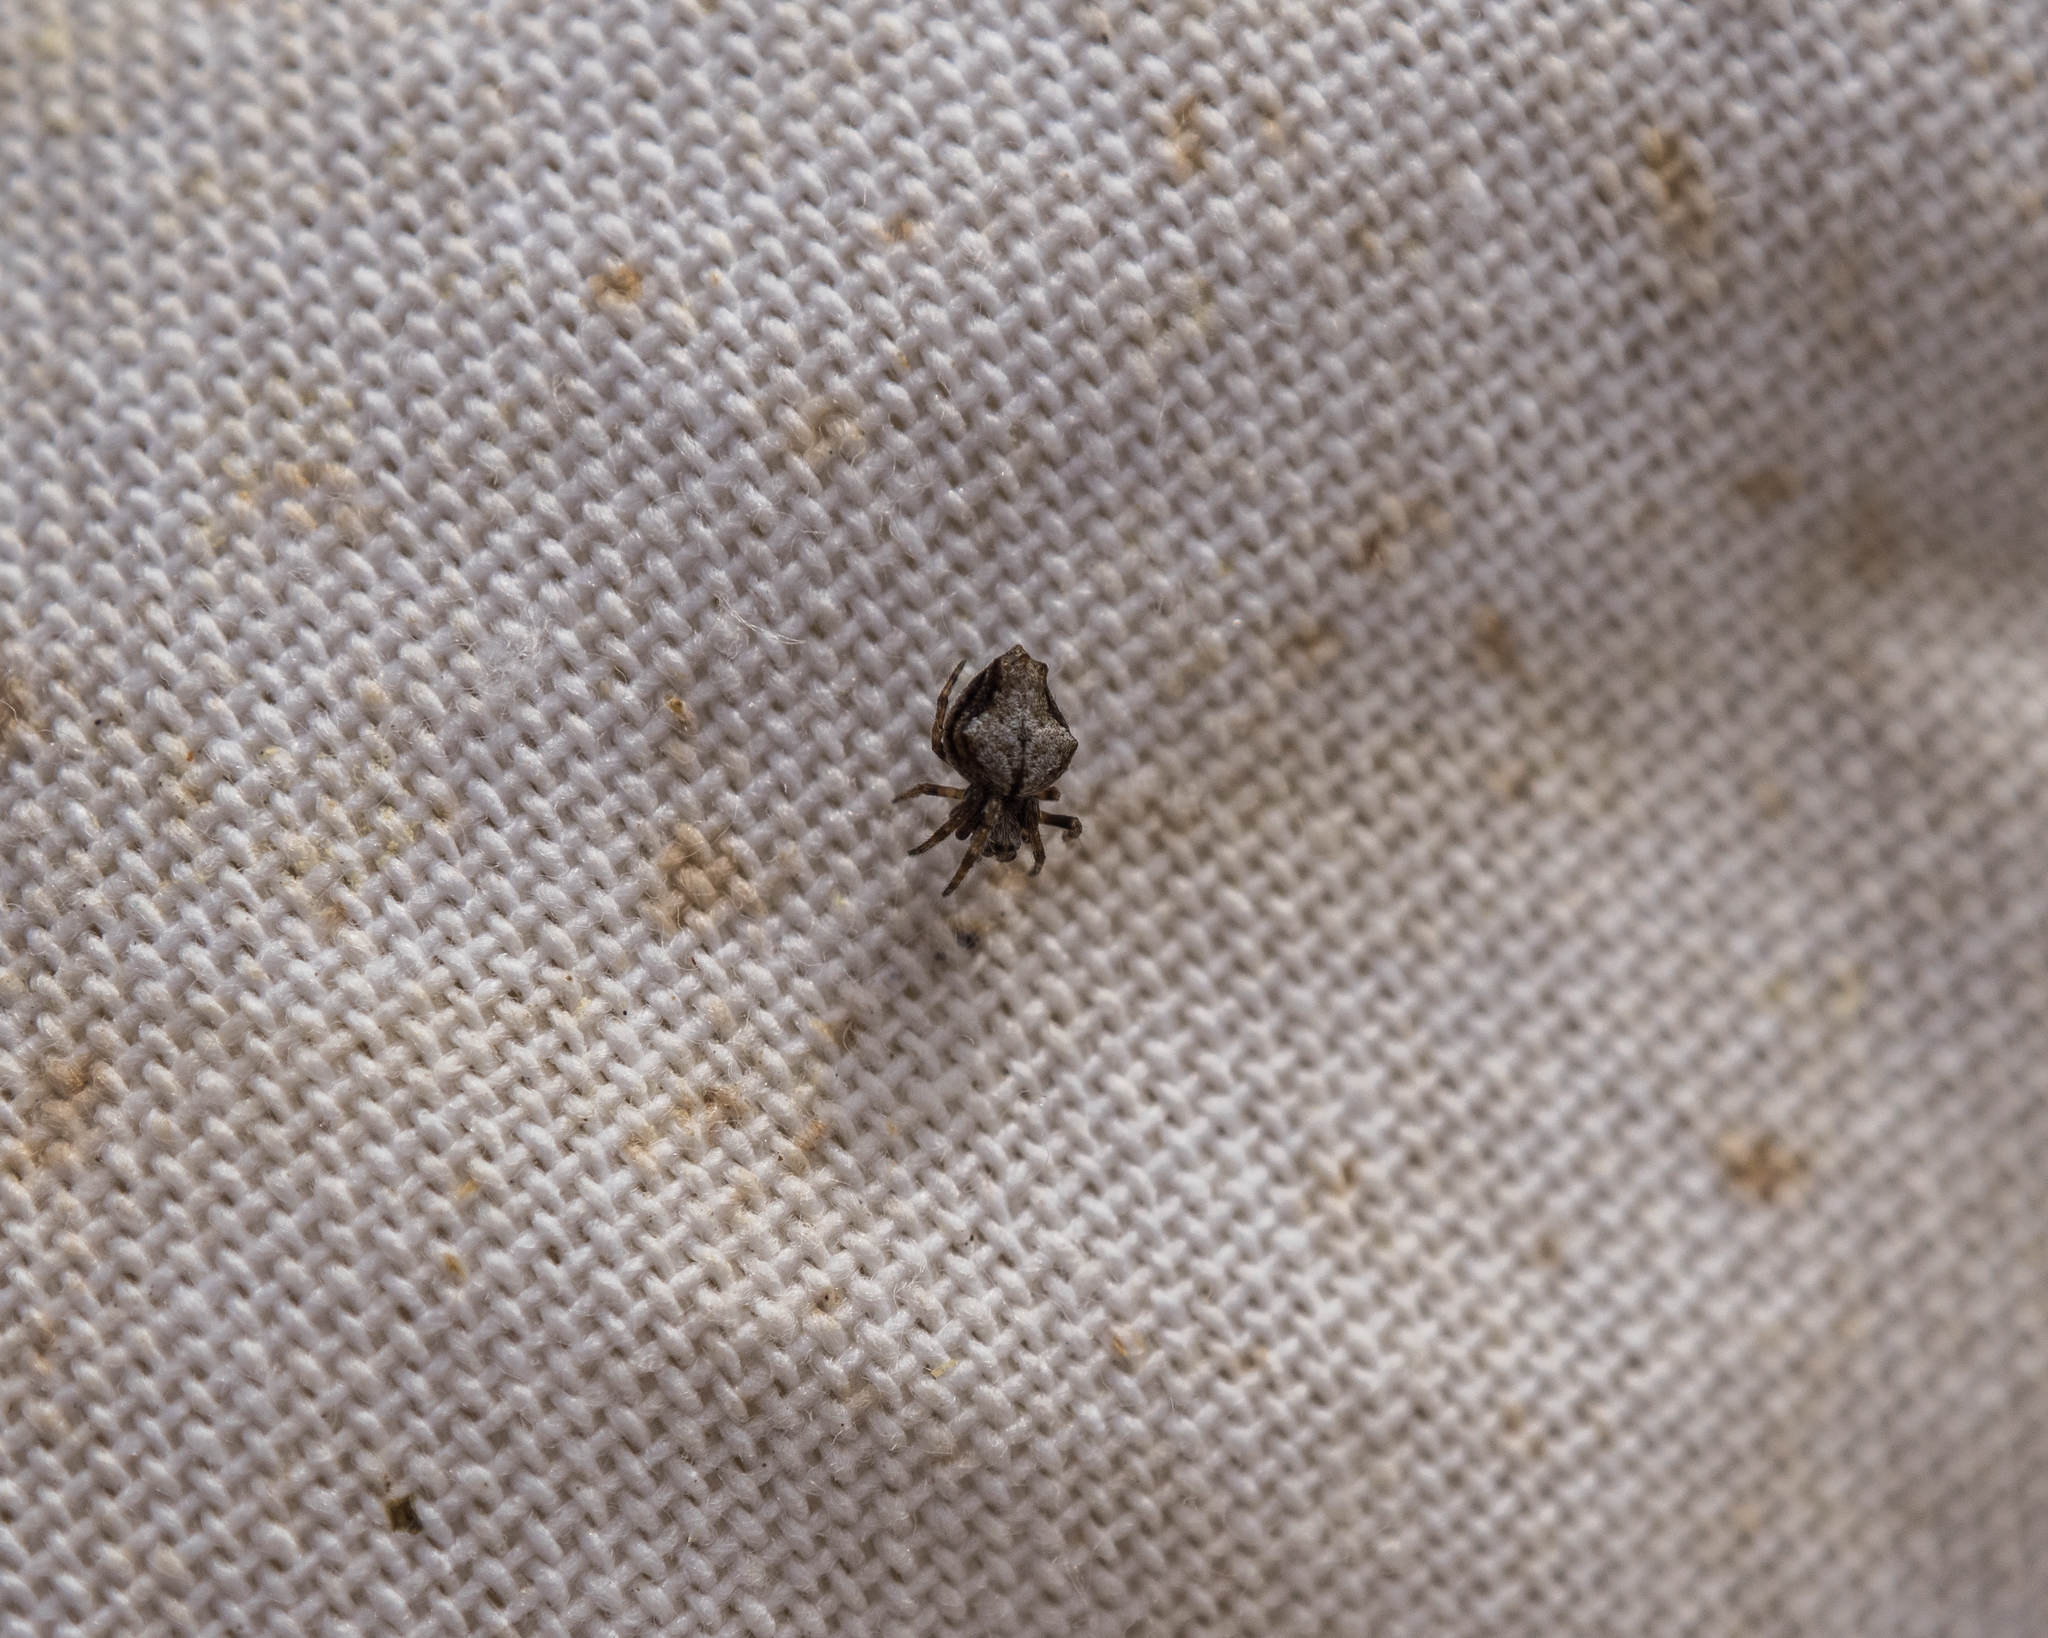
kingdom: Animalia
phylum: Arthropoda
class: Arachnida
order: Araneae
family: Araneidae
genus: Eriophora
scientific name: Eriophora pustulosa
